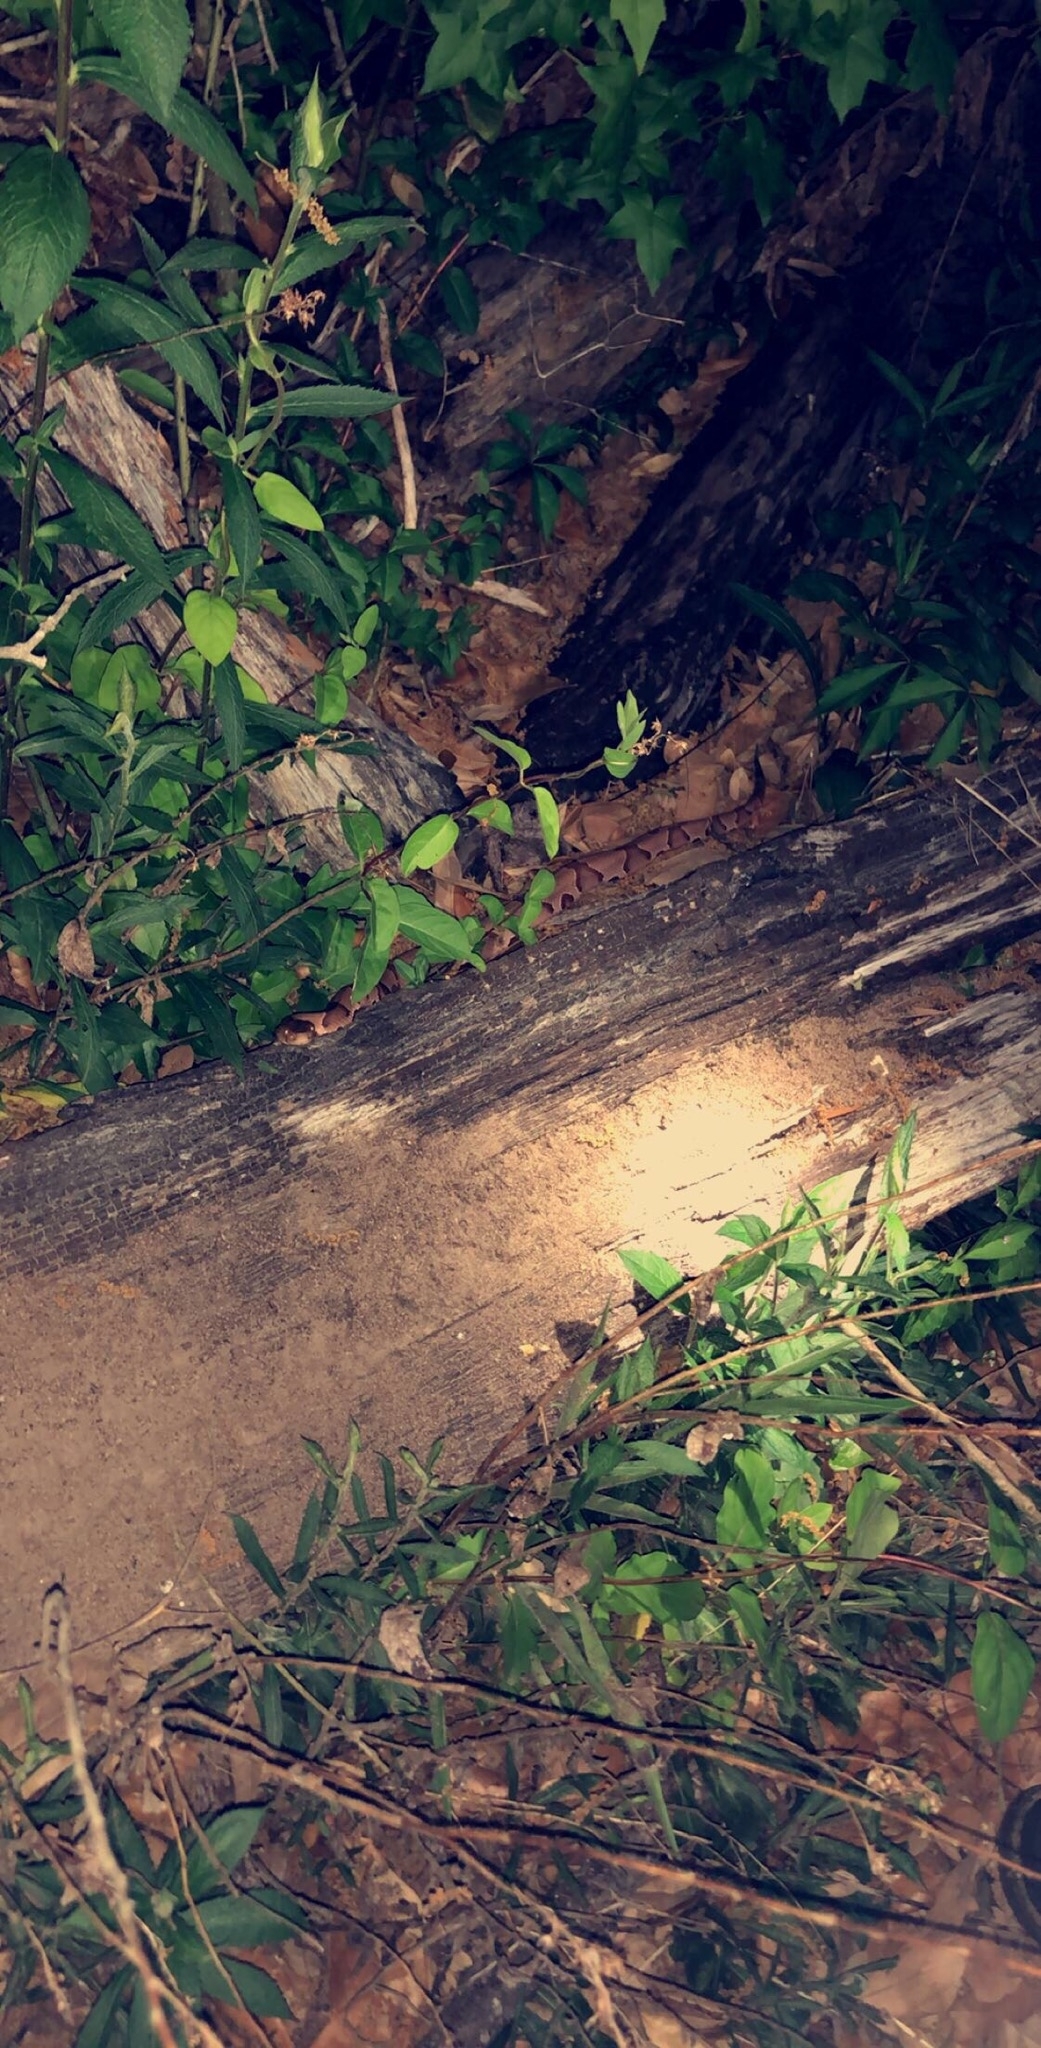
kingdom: Animalia
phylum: Chordata
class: Squamata
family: Viperidae
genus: Agkistrodon
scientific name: Agkistrodon contortrix
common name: Northern copperhead
